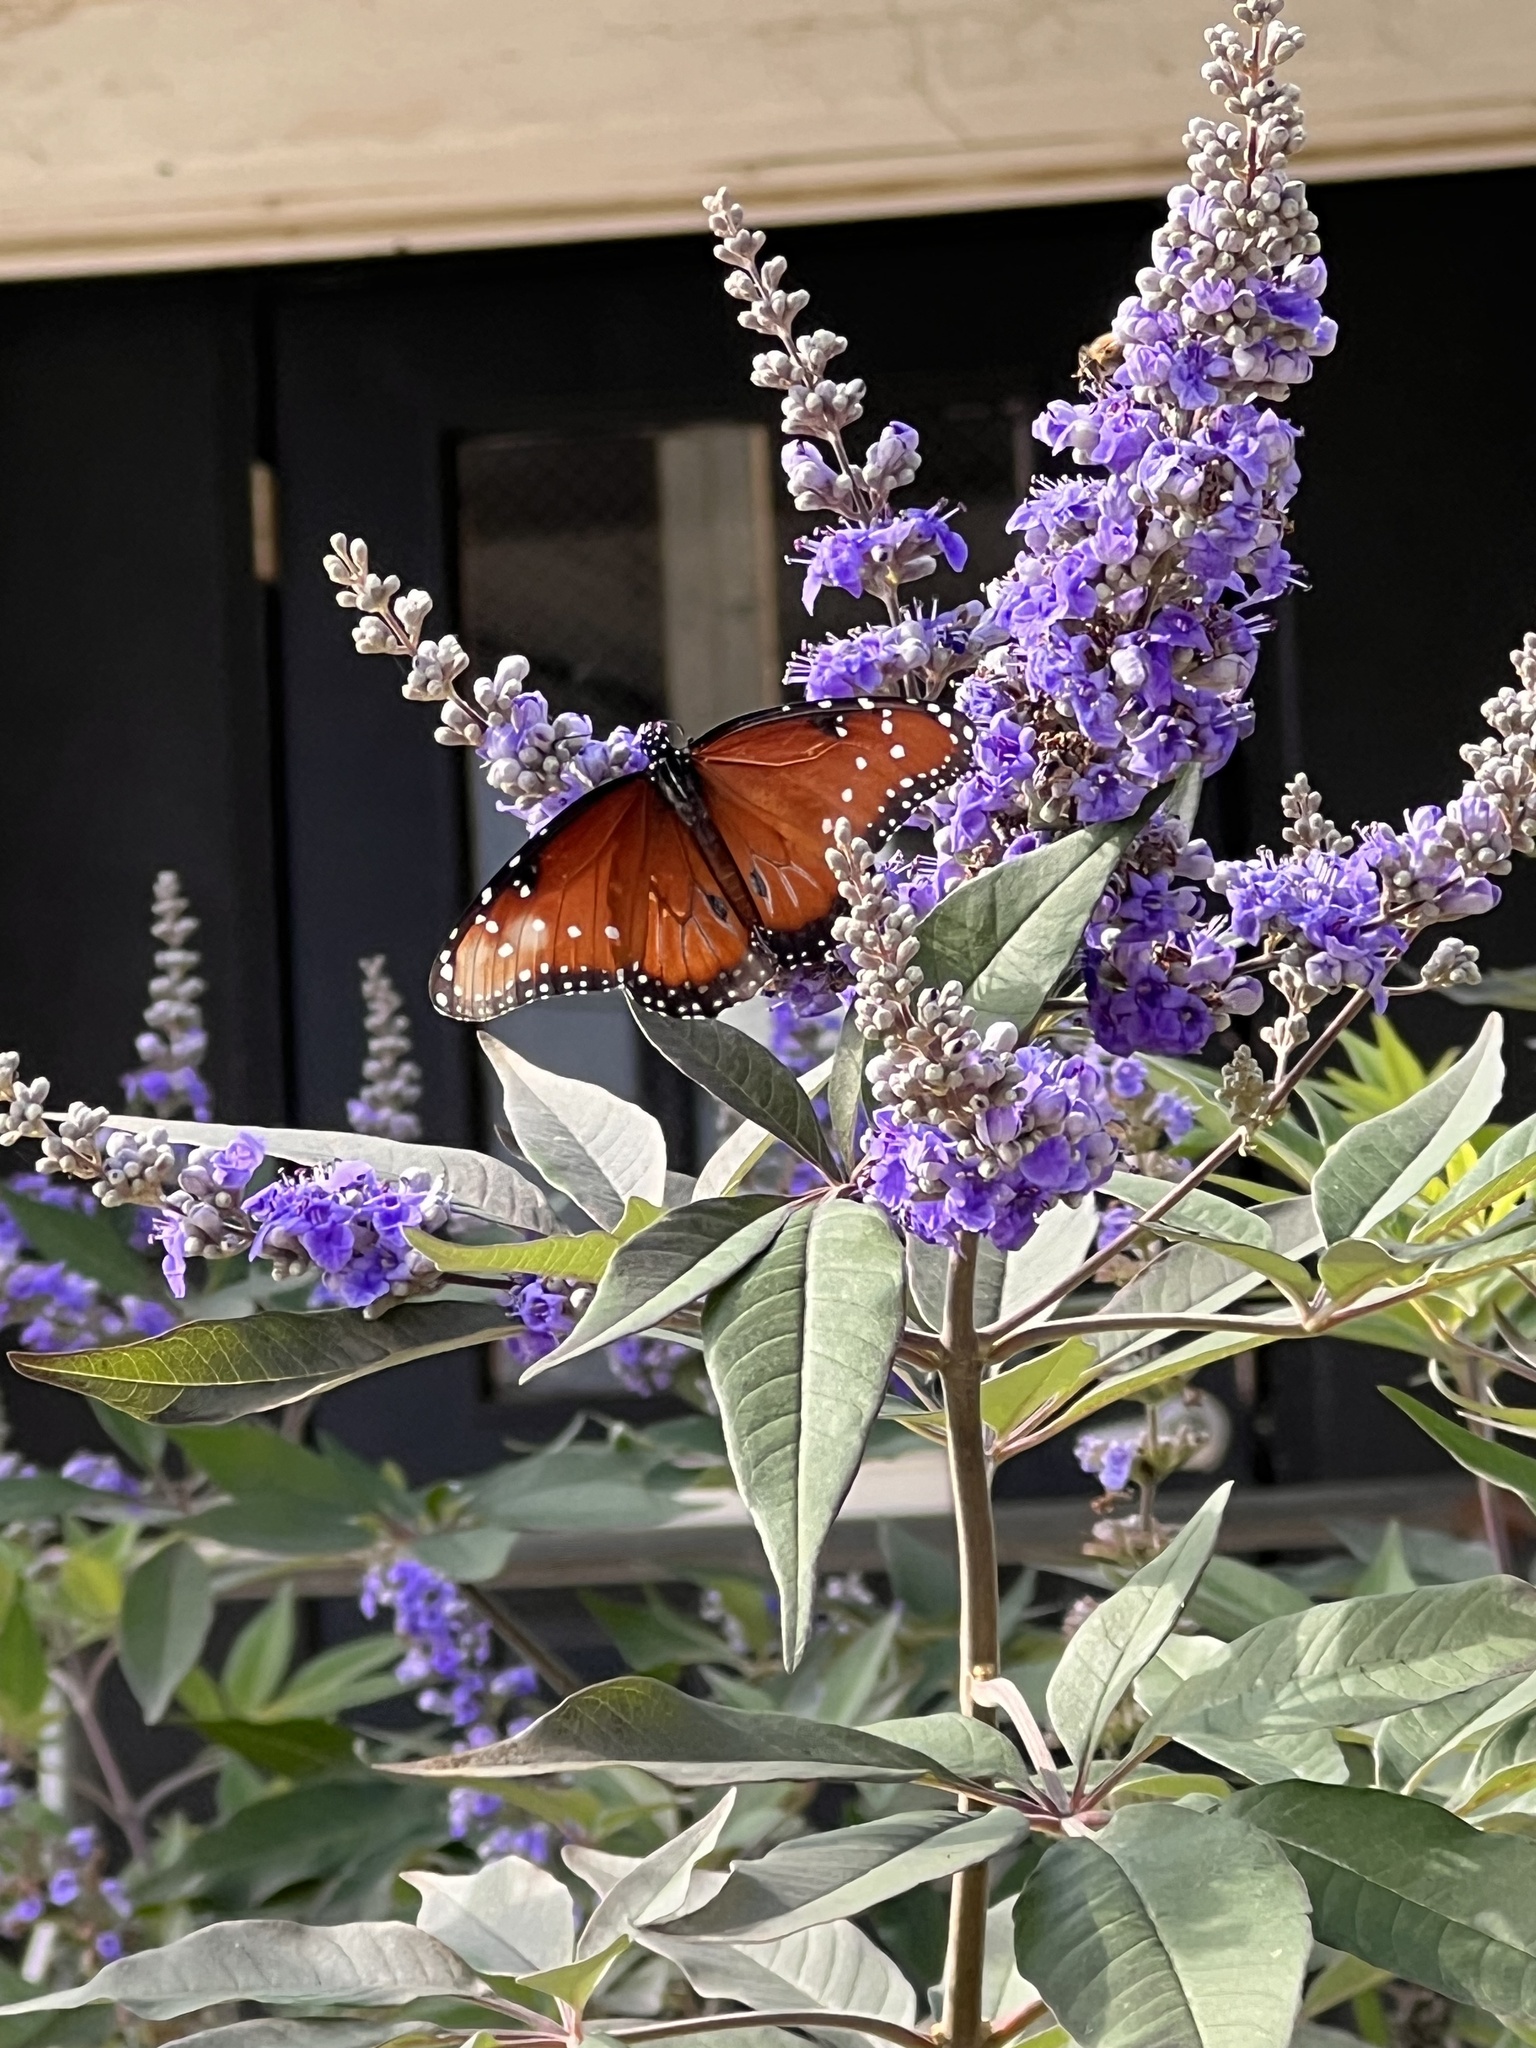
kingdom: Animalia
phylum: Arthropoda
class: Insecta
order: Lepidoptera
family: Nymphalidae
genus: Danaus
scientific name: Danaus gilippus
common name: Queen
